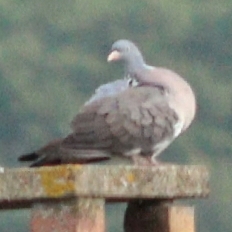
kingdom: Animalia
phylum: Chordata
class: Aves
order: Columbiformes
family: Columbidae
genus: Columba
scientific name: Columba palumbus
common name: Common wood pigeon
